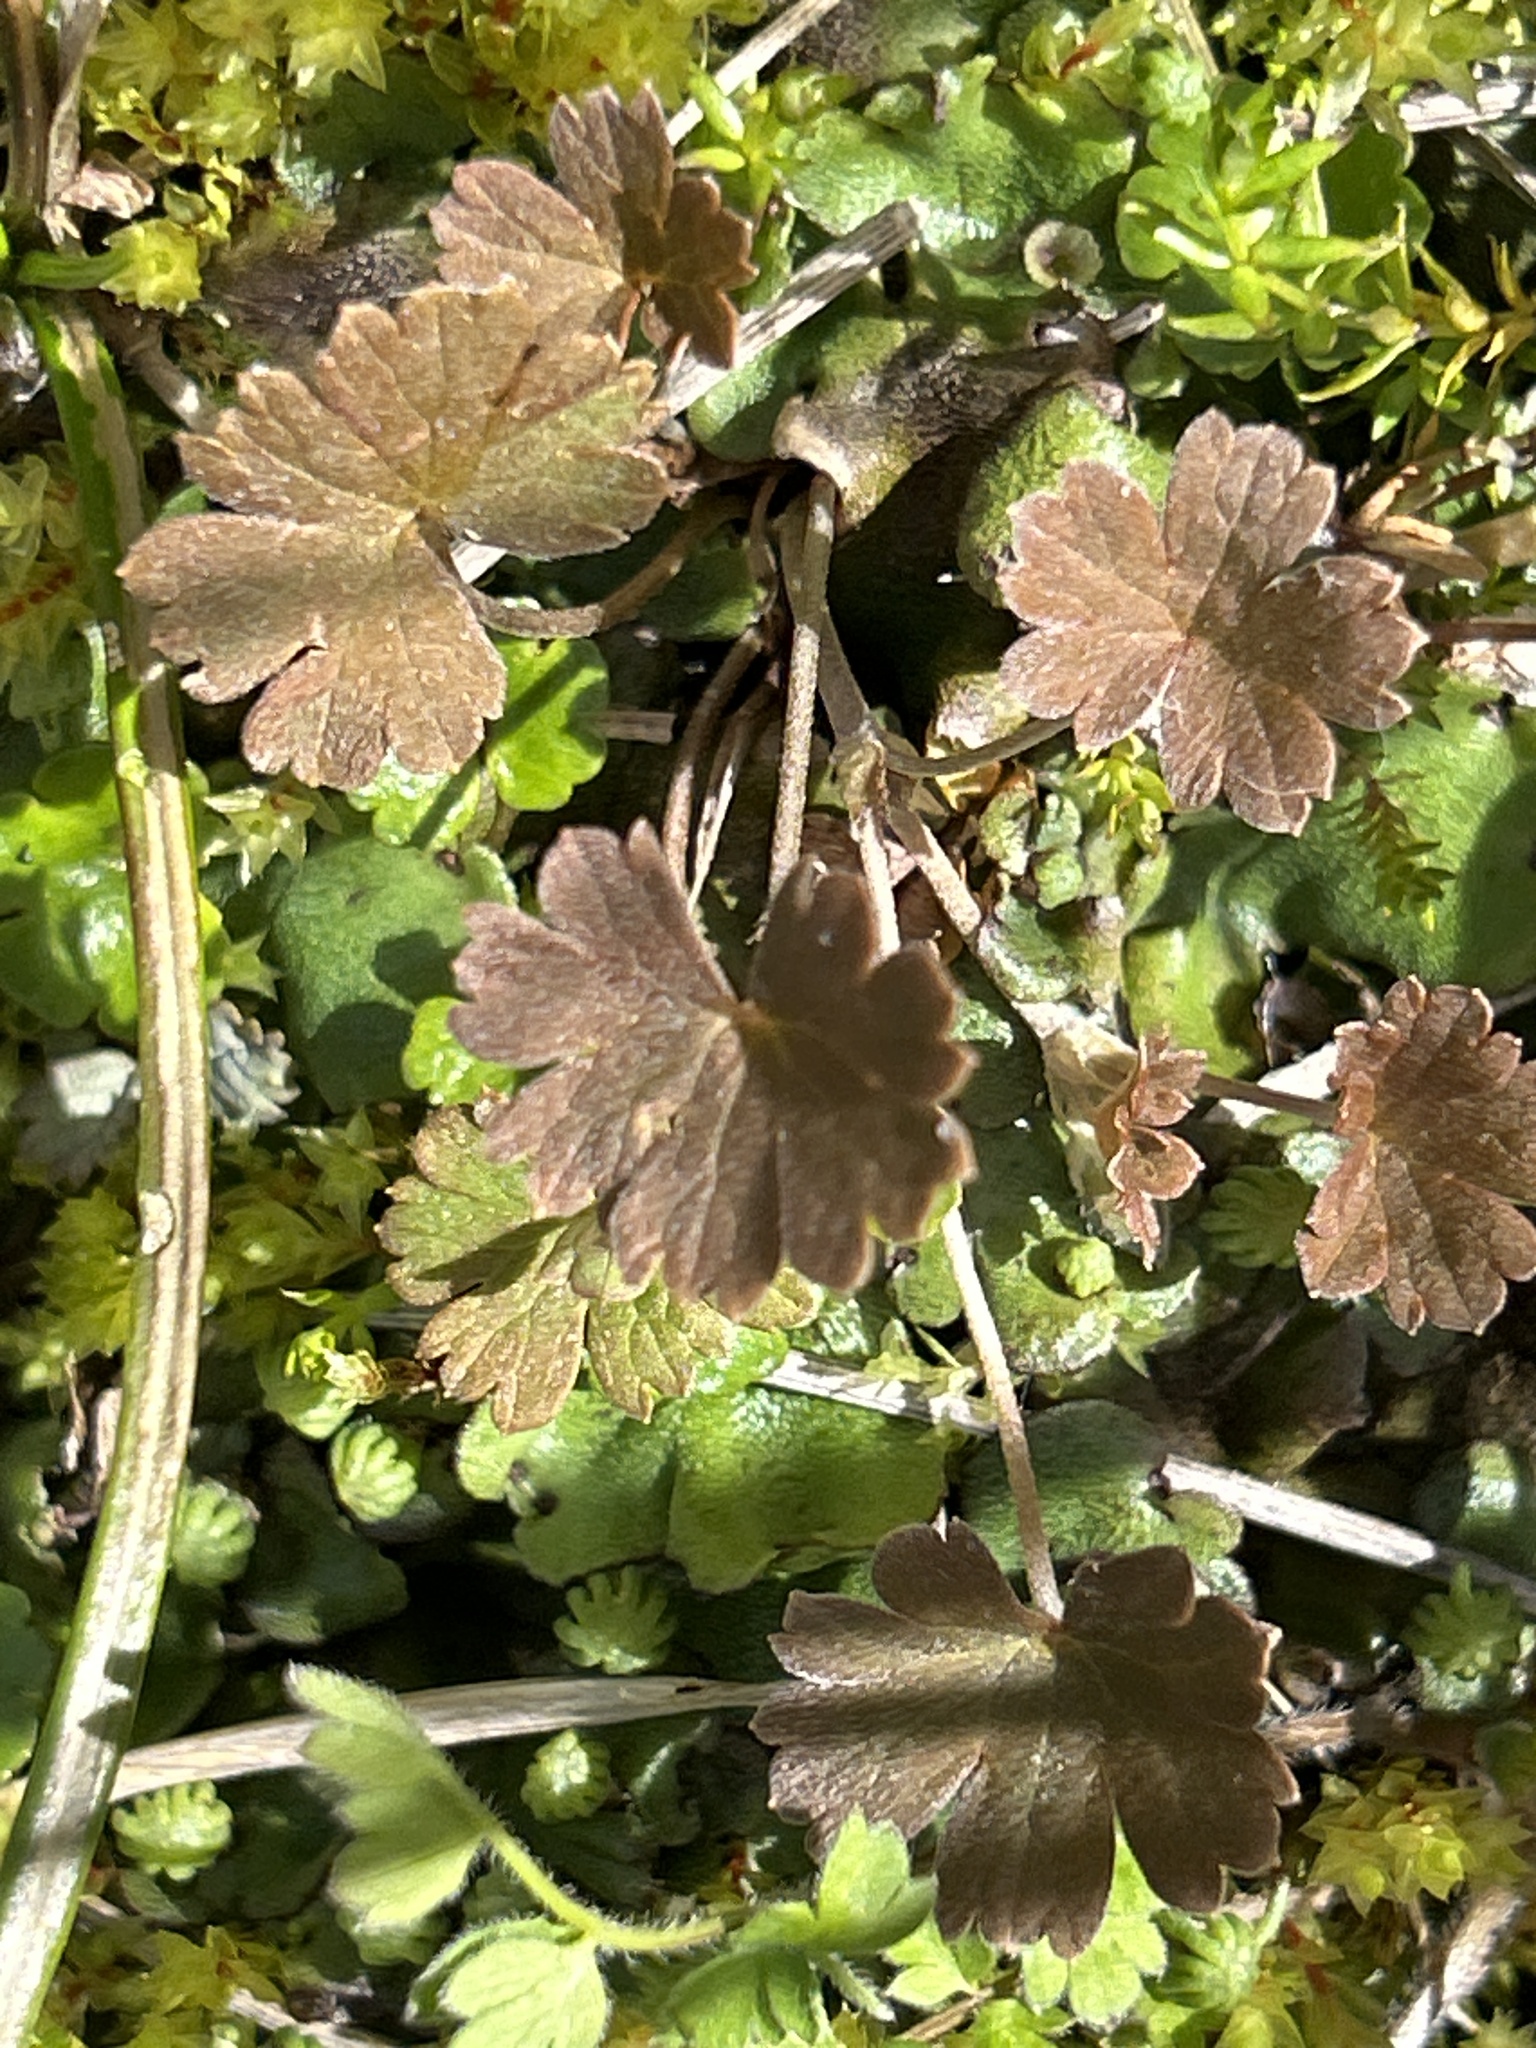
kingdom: Plantae
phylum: Tracheophyta
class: Magnoliopsida
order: Geraniales
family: Geraniaceae
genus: Geranium
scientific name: Geranium brevicaule
